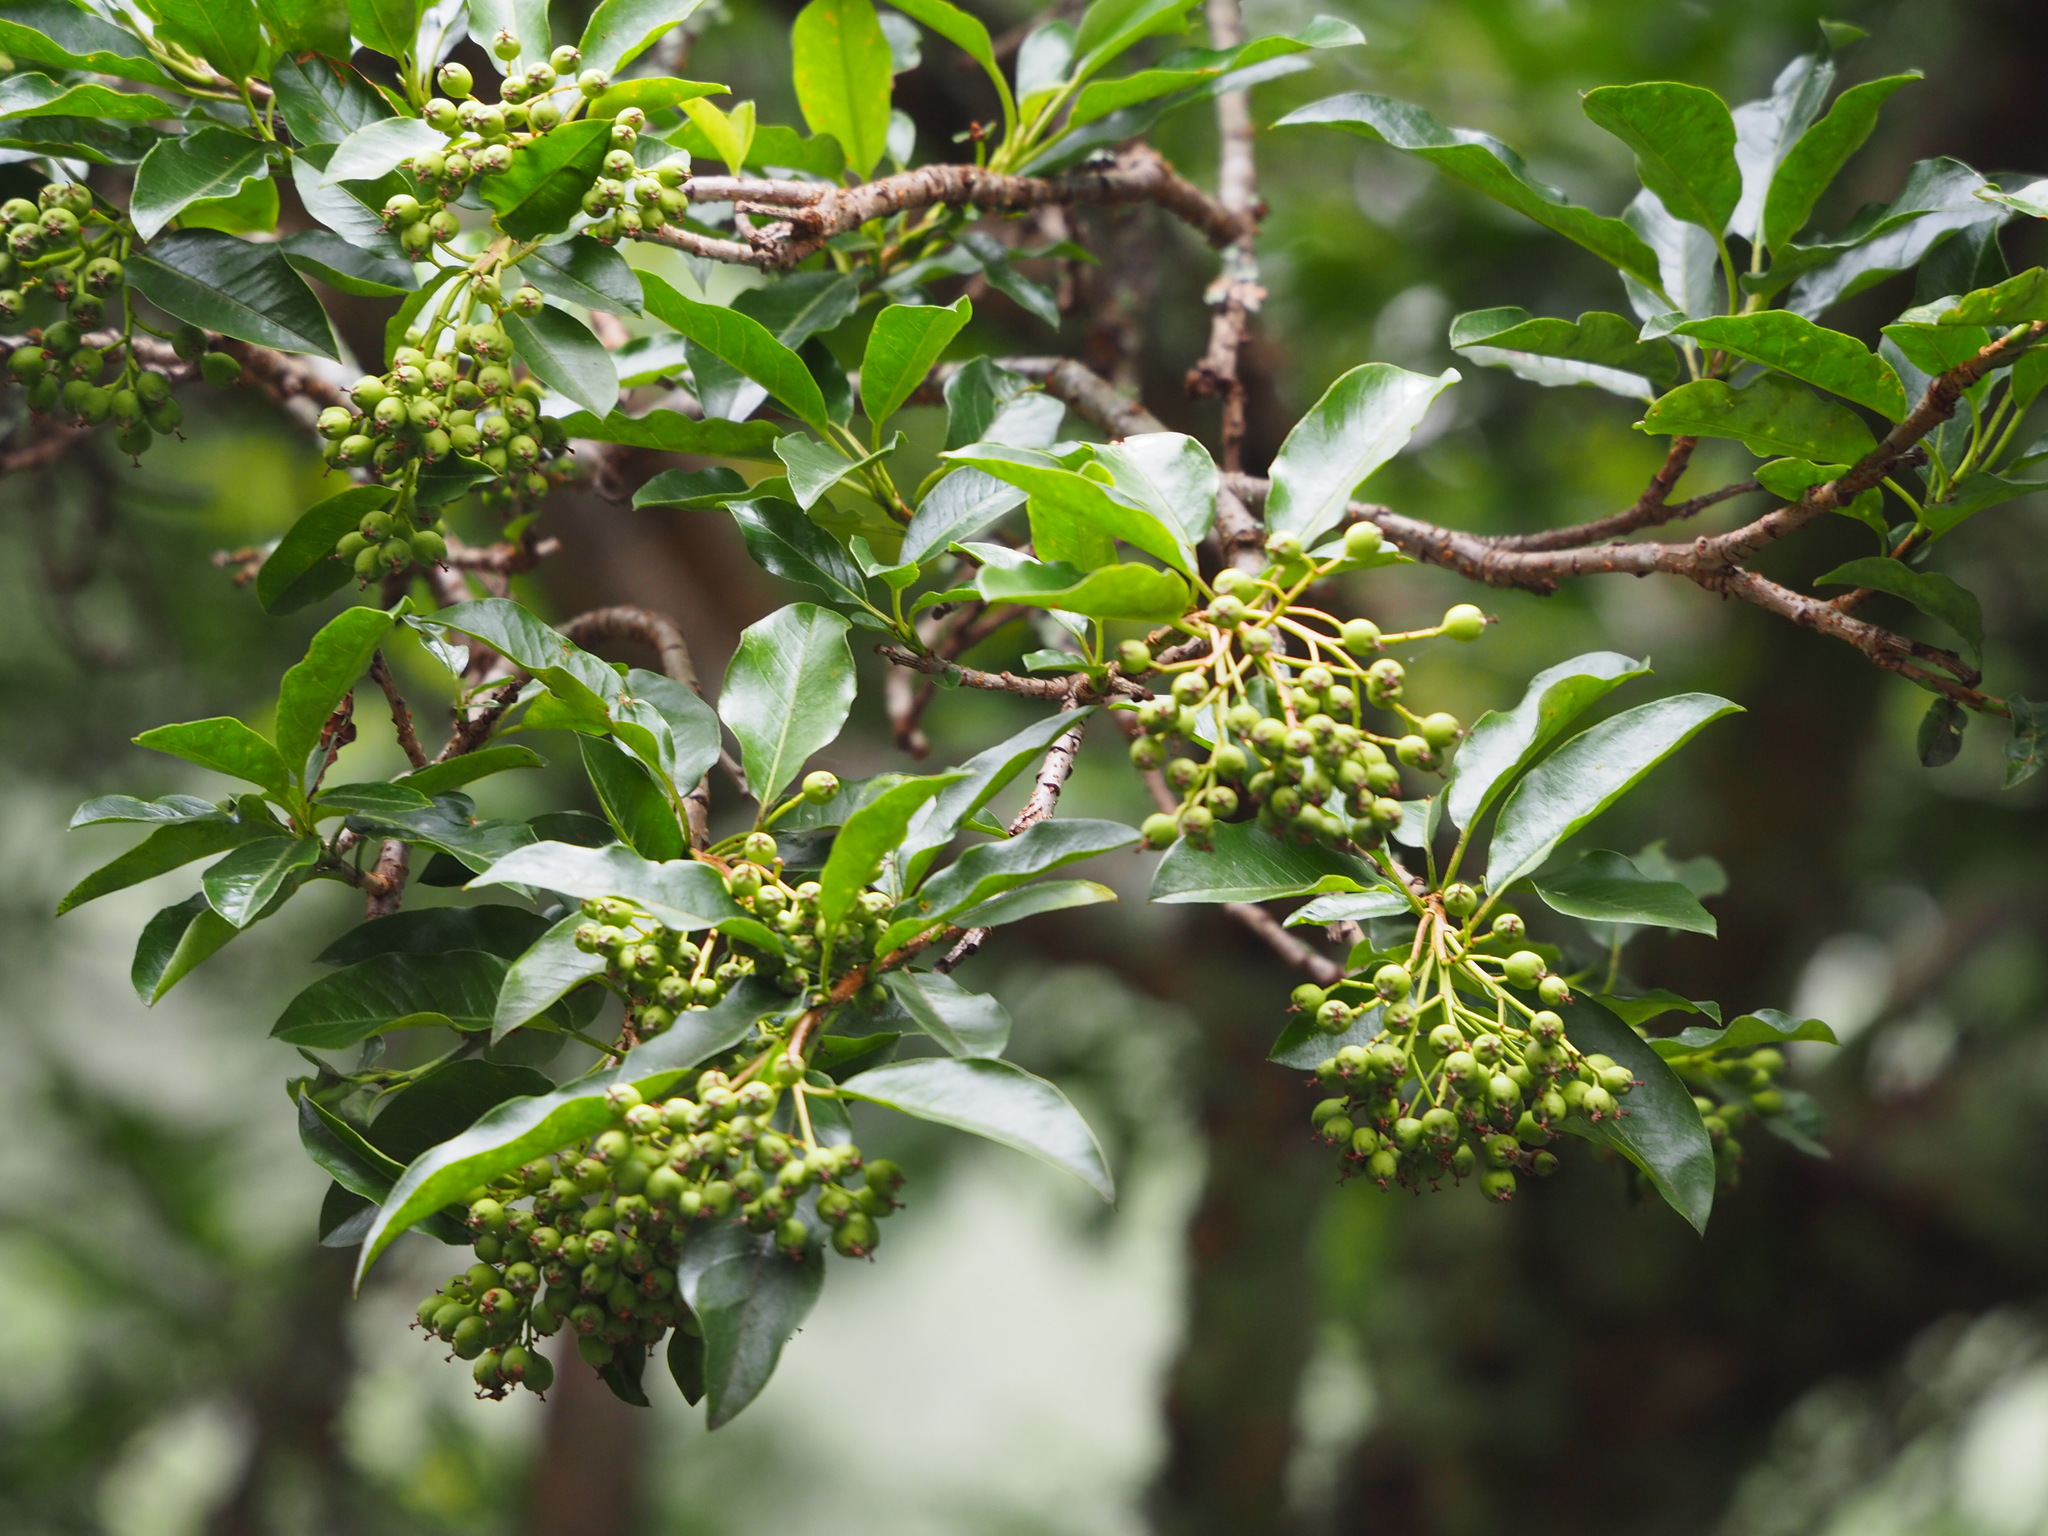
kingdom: Plantae
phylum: Tracheophyta
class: Magnoliopsida
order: Rosales
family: Rosaceae
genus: Stranvaesia
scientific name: Stranvaesia davidiana
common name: Chinese photinia
